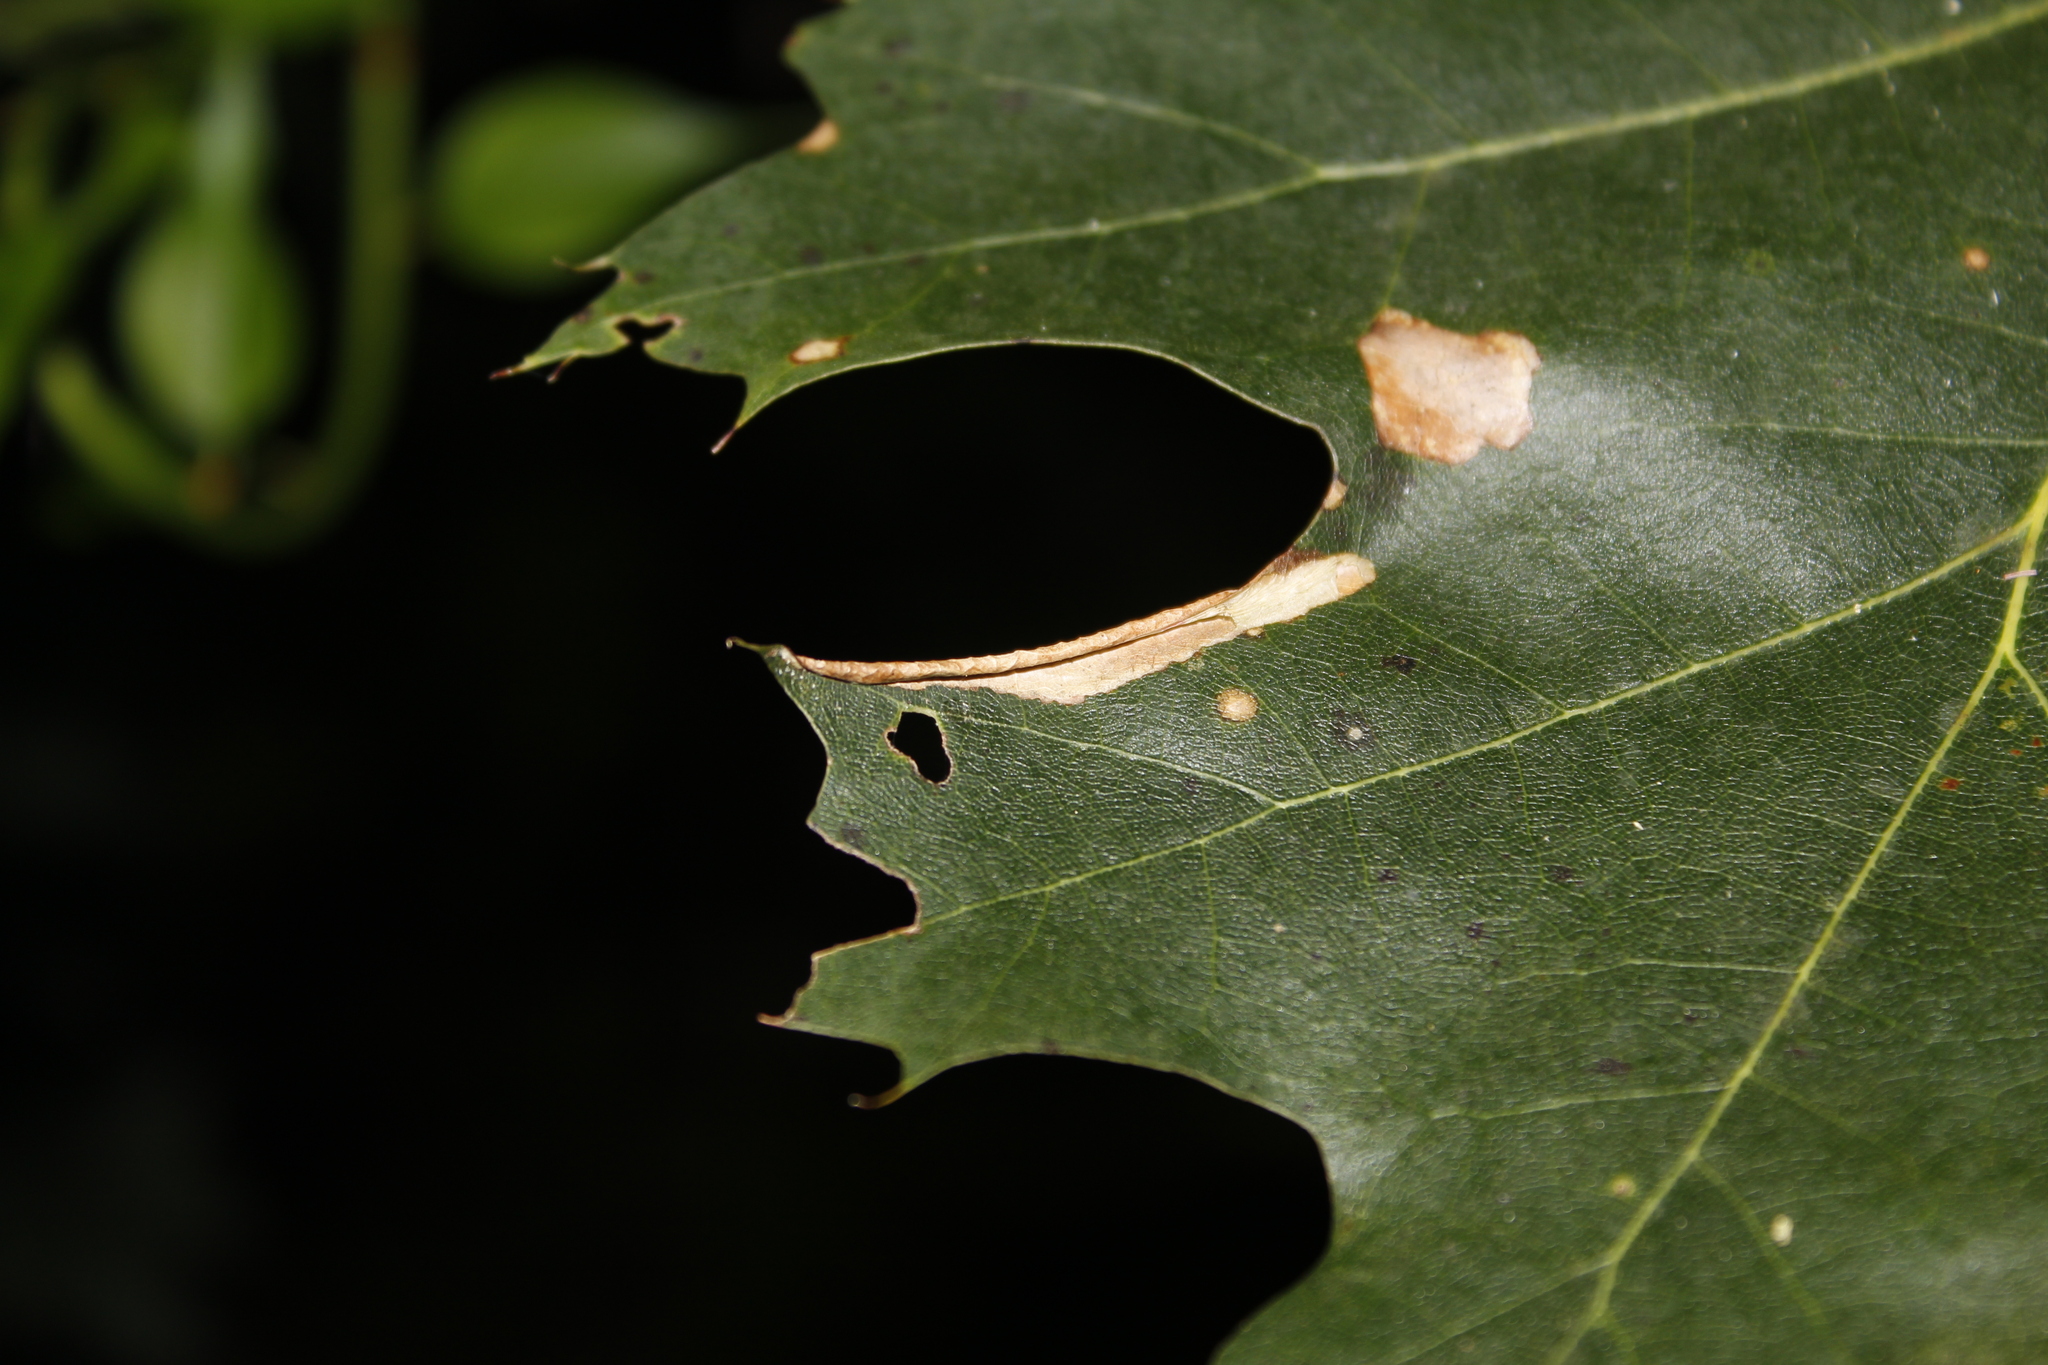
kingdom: Animalia
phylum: Arthropoda
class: Insecta
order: Lepidoptera
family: Tischeriidae
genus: Coptotriche
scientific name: Coptotriche citrinipennella
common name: The golden sweeper
